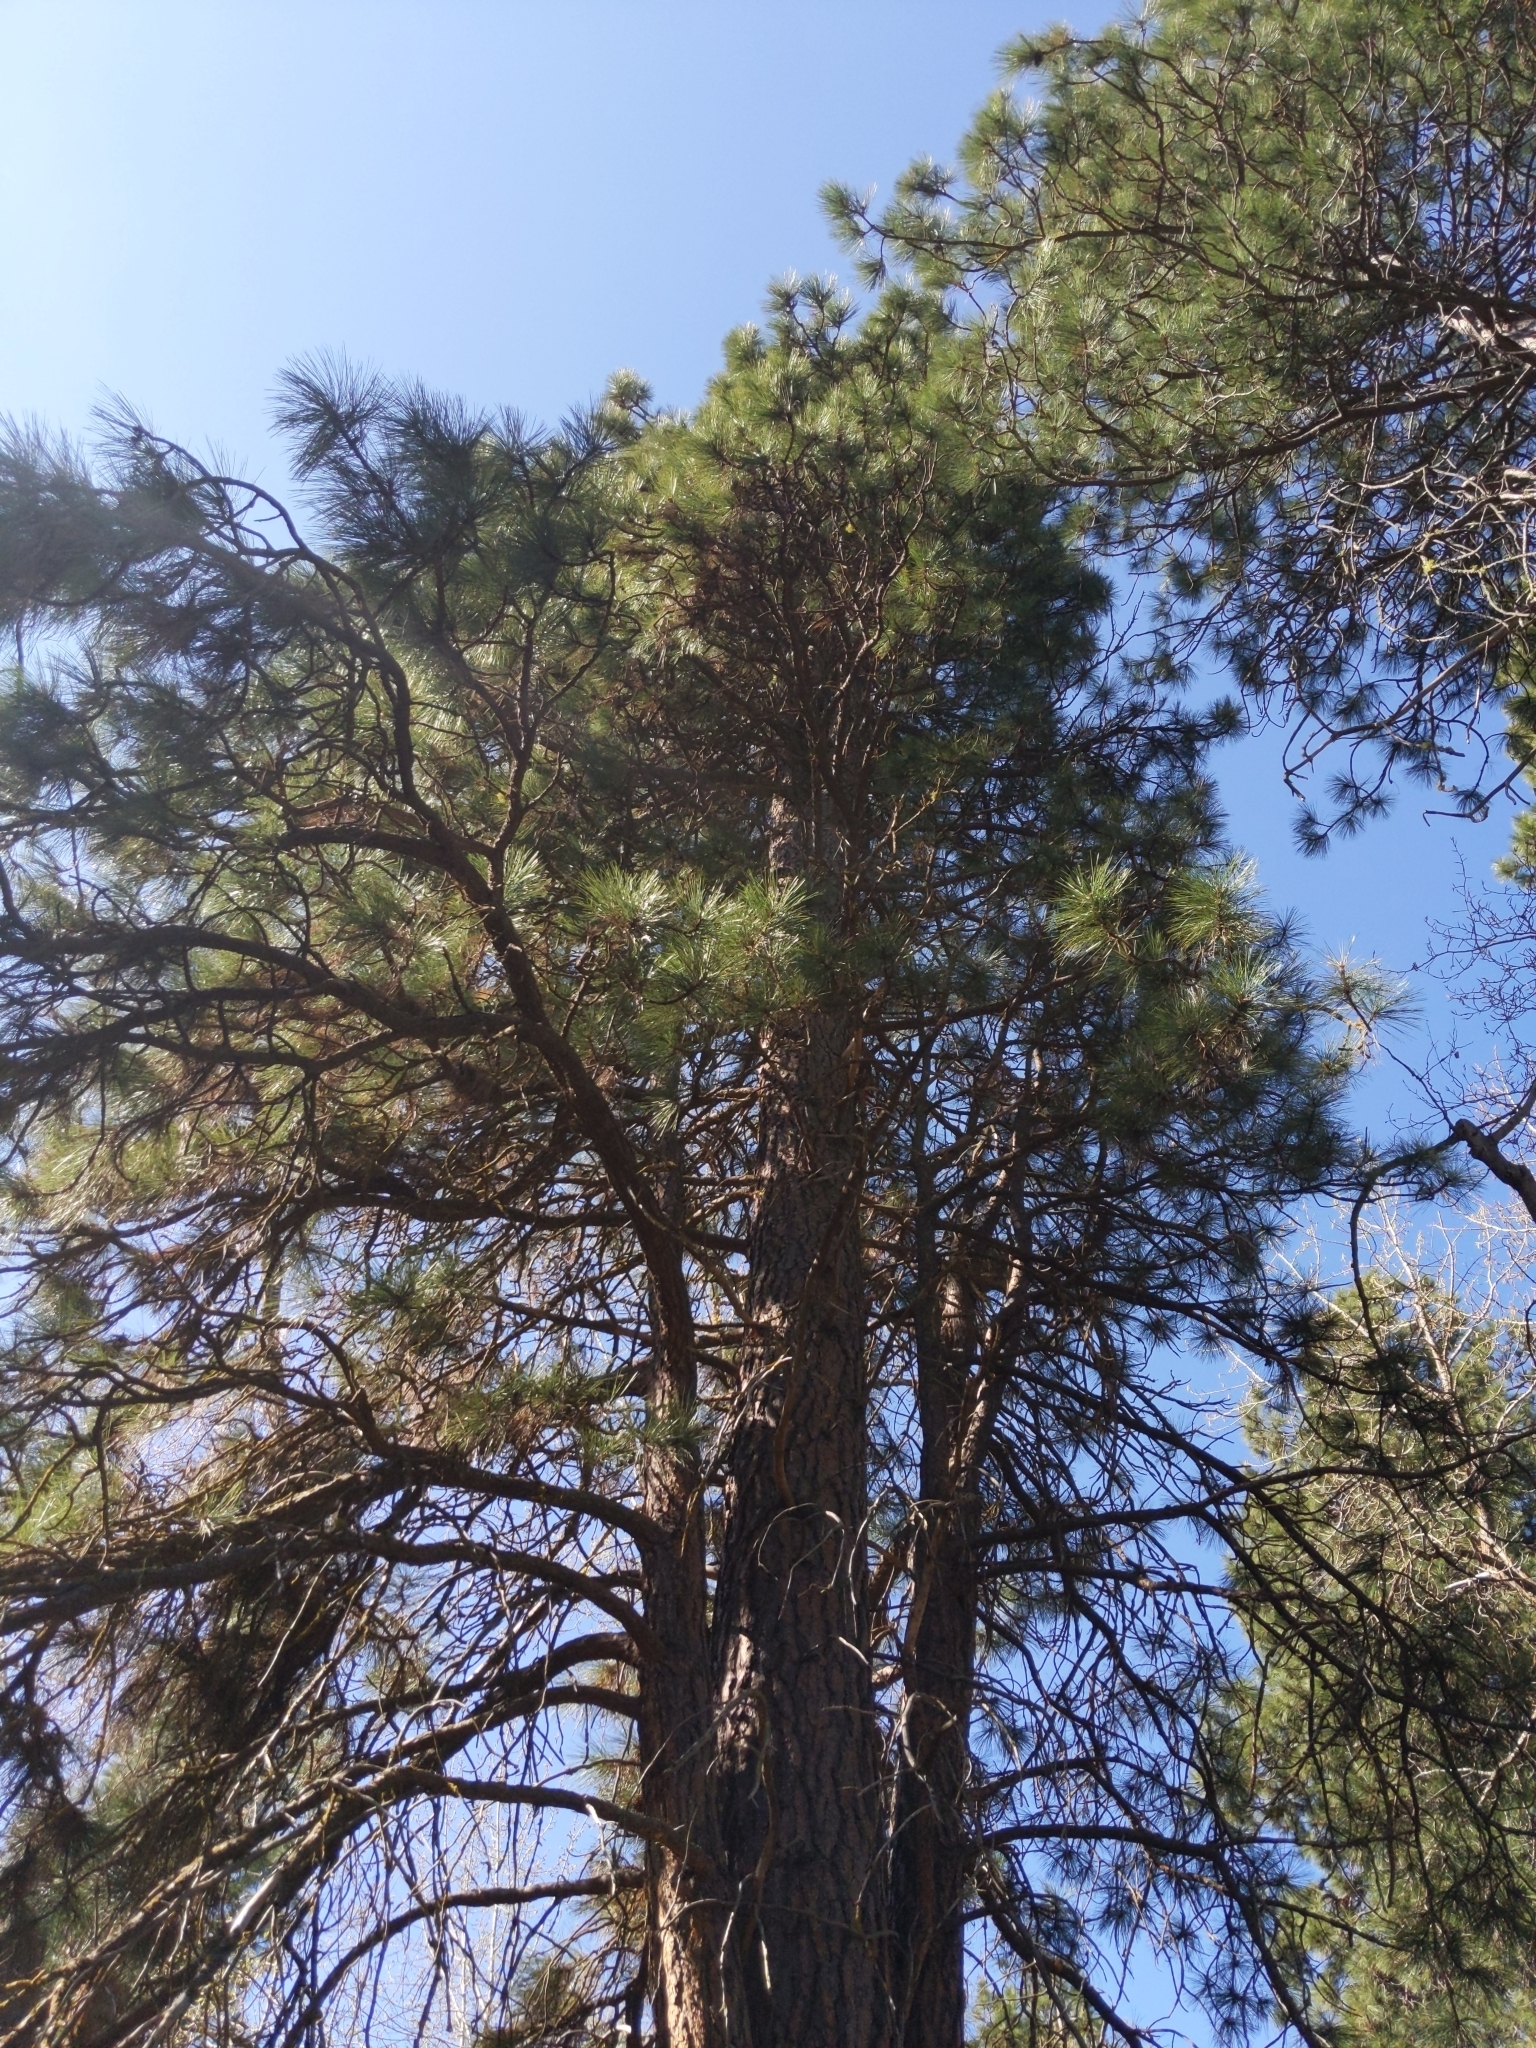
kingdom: Plantae
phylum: Tracheophyta
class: Pinopsida
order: Pinales
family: Pinaceae
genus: Pinus
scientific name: Pinus ponderosa
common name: Western yellow-pine
